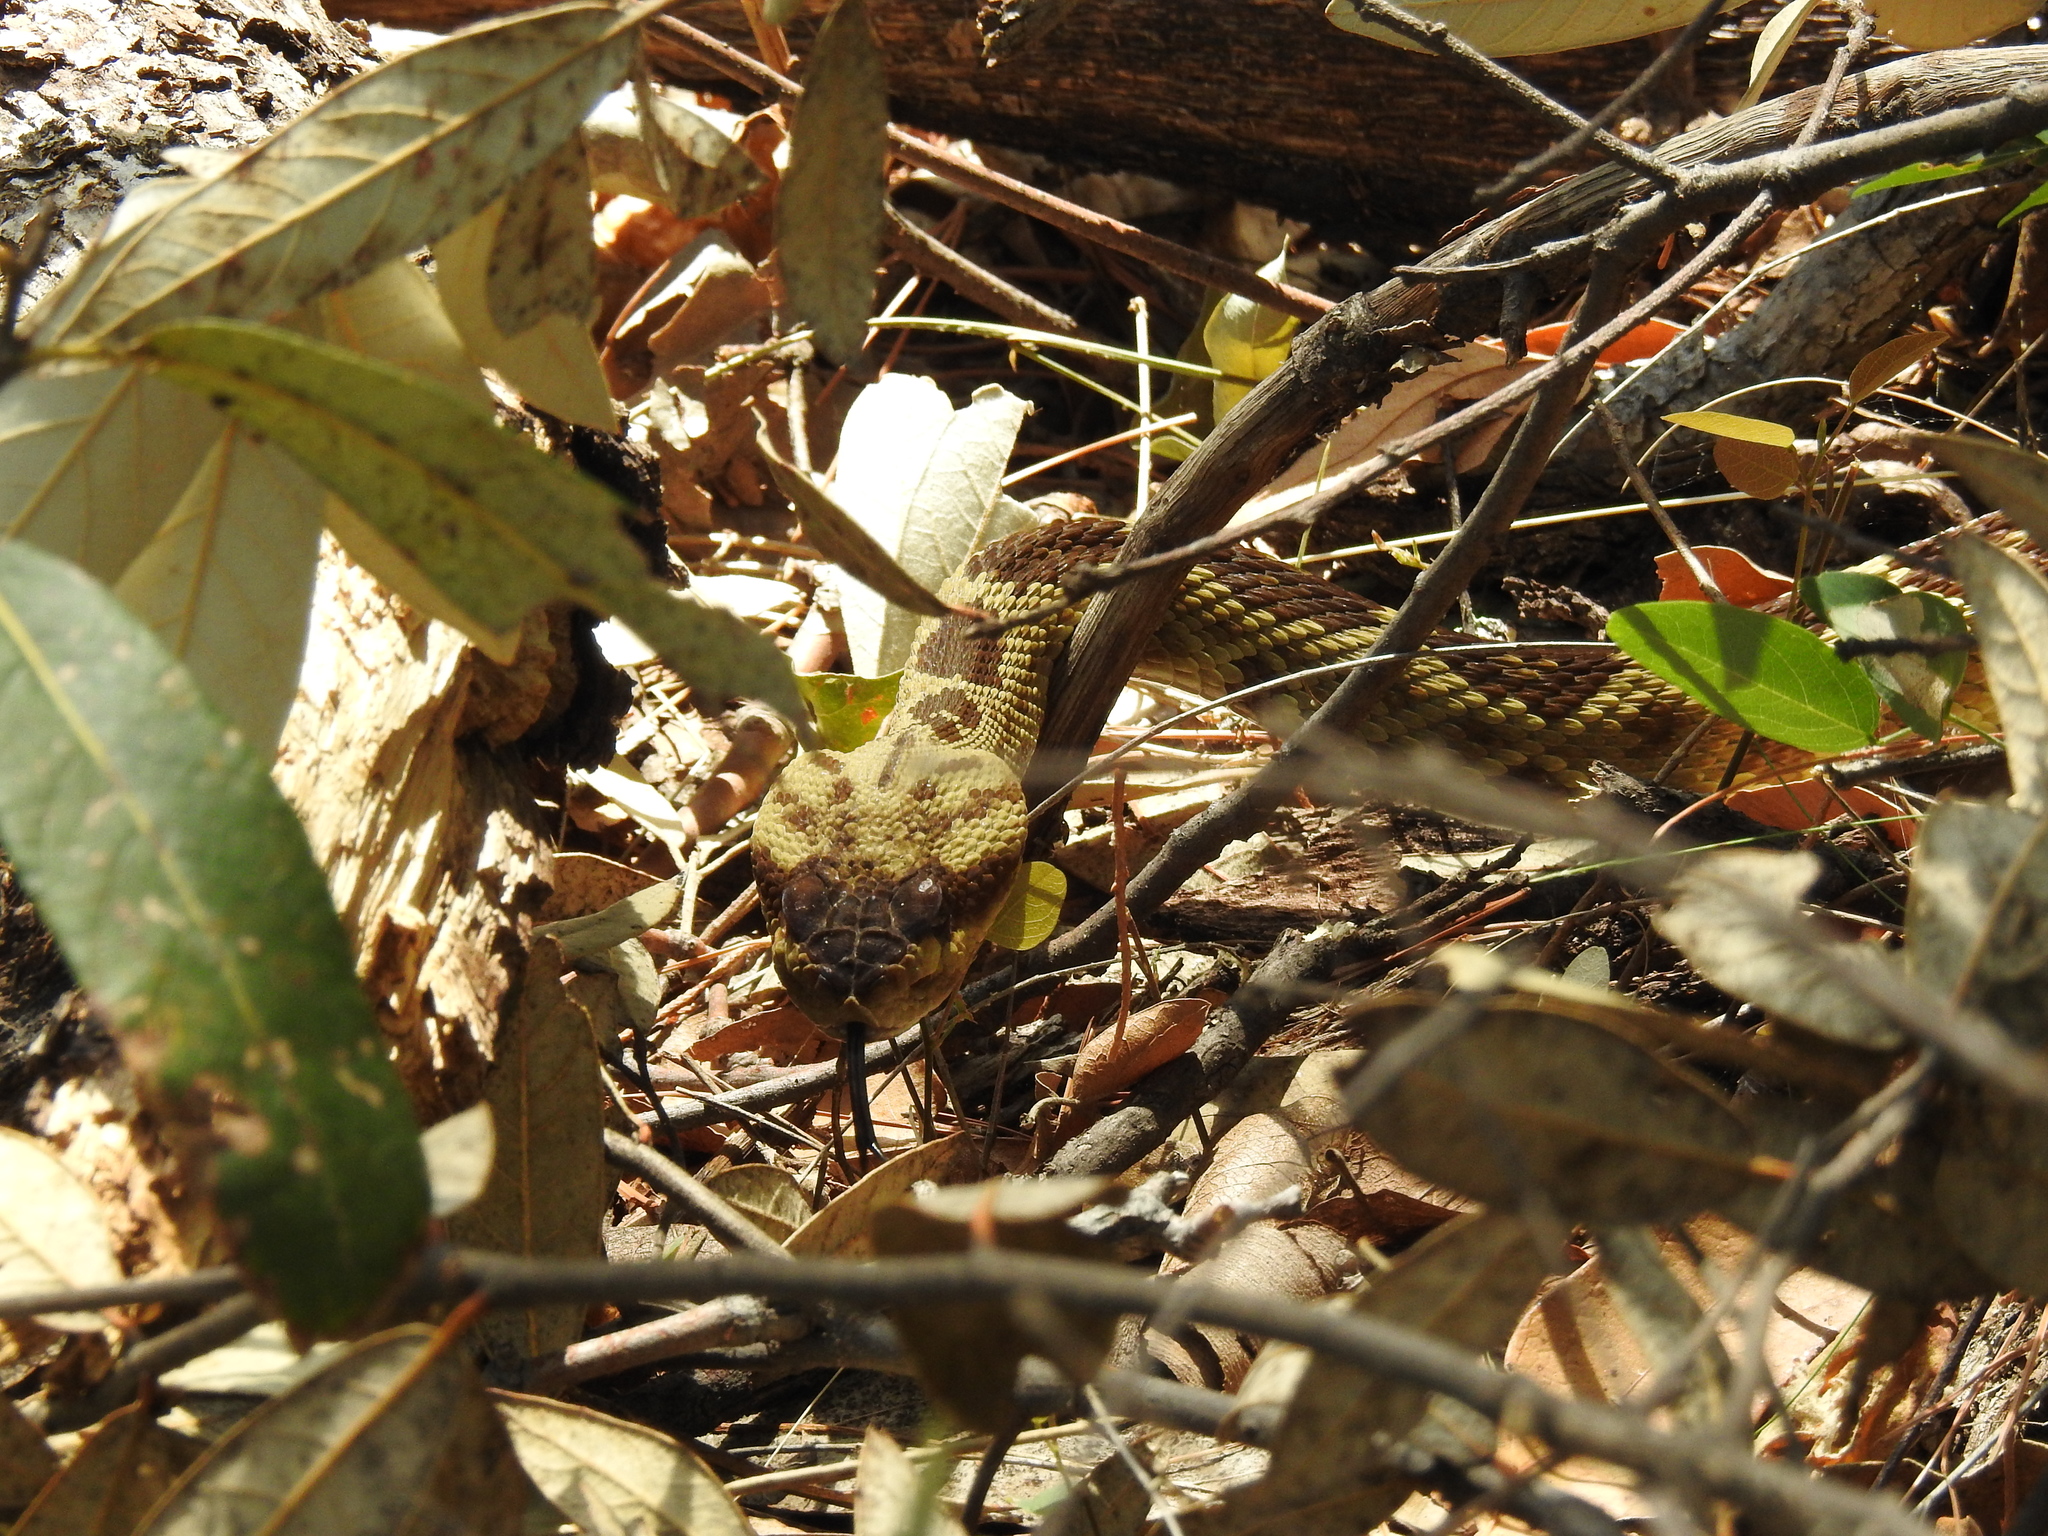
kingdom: Animalia
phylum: Chordata
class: Squamata
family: Viperidae
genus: Crotalus
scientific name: Crotalus molossus
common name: Black tailed rattlesnake
